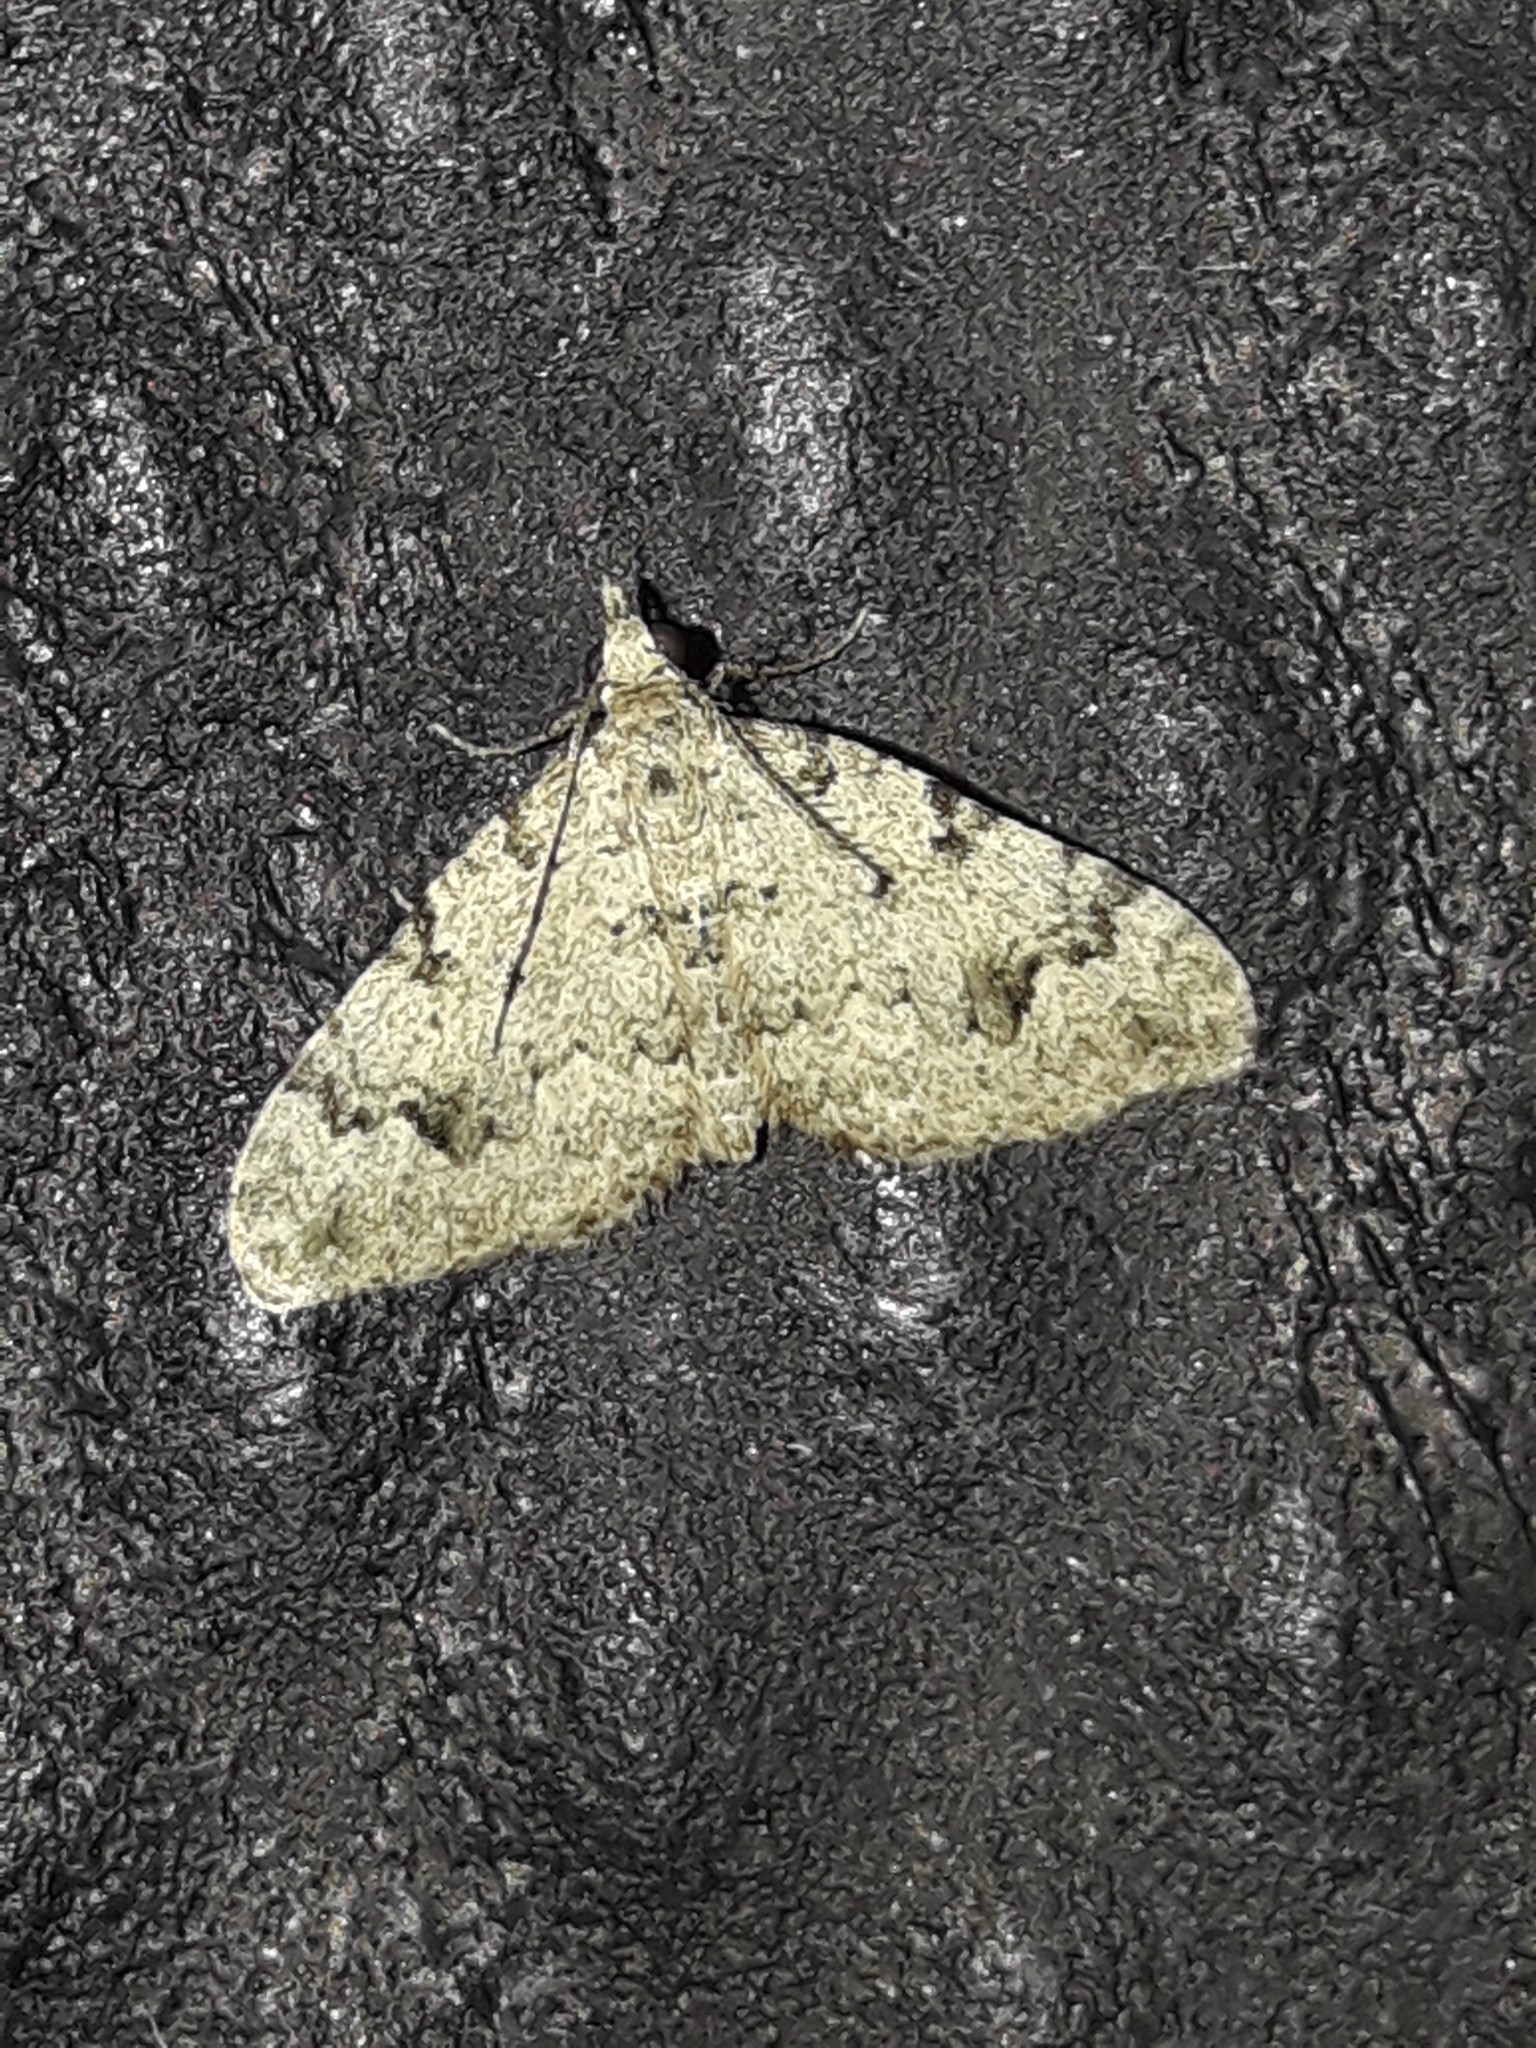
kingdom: Animalia
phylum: Arthropoda
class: Insecta
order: Lepidoptera
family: Geometridae
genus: Helastia
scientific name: Helastia cinerearia
